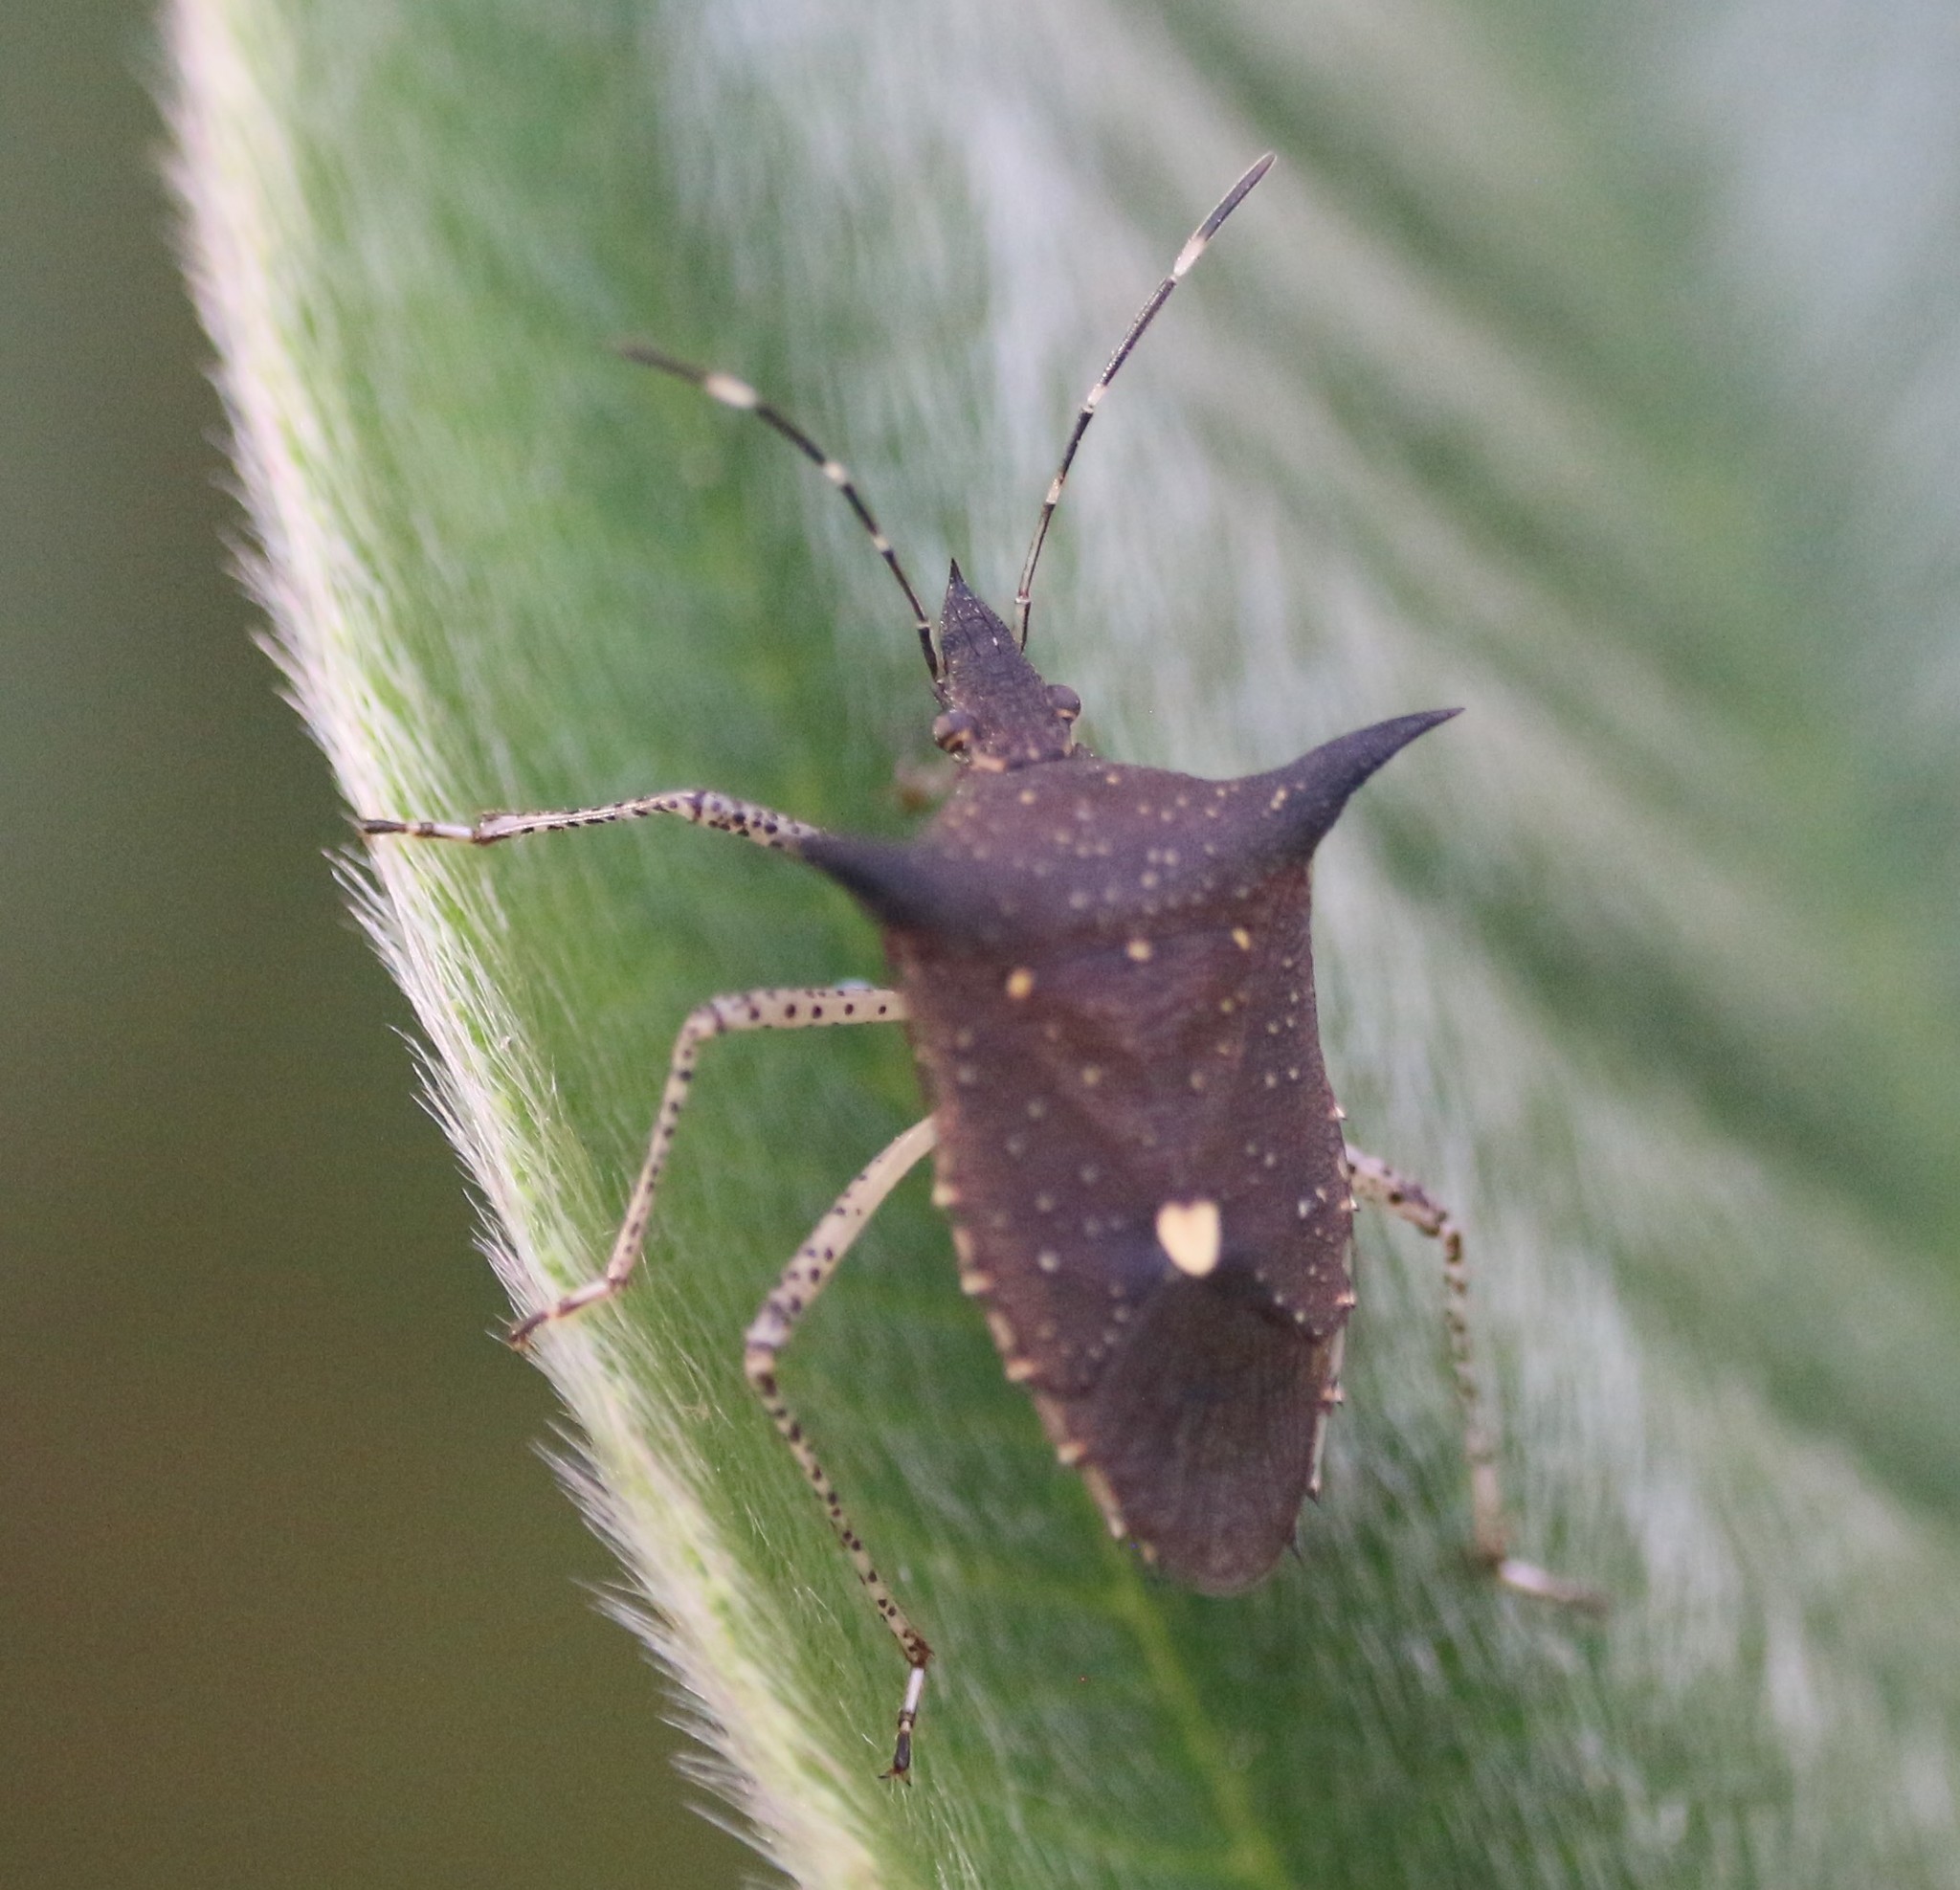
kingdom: Animalia
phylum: Arthropoda
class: Insecta
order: Hemiptera
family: Pentatomidae
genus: Proxys
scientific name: Proxys albopunctulatus
